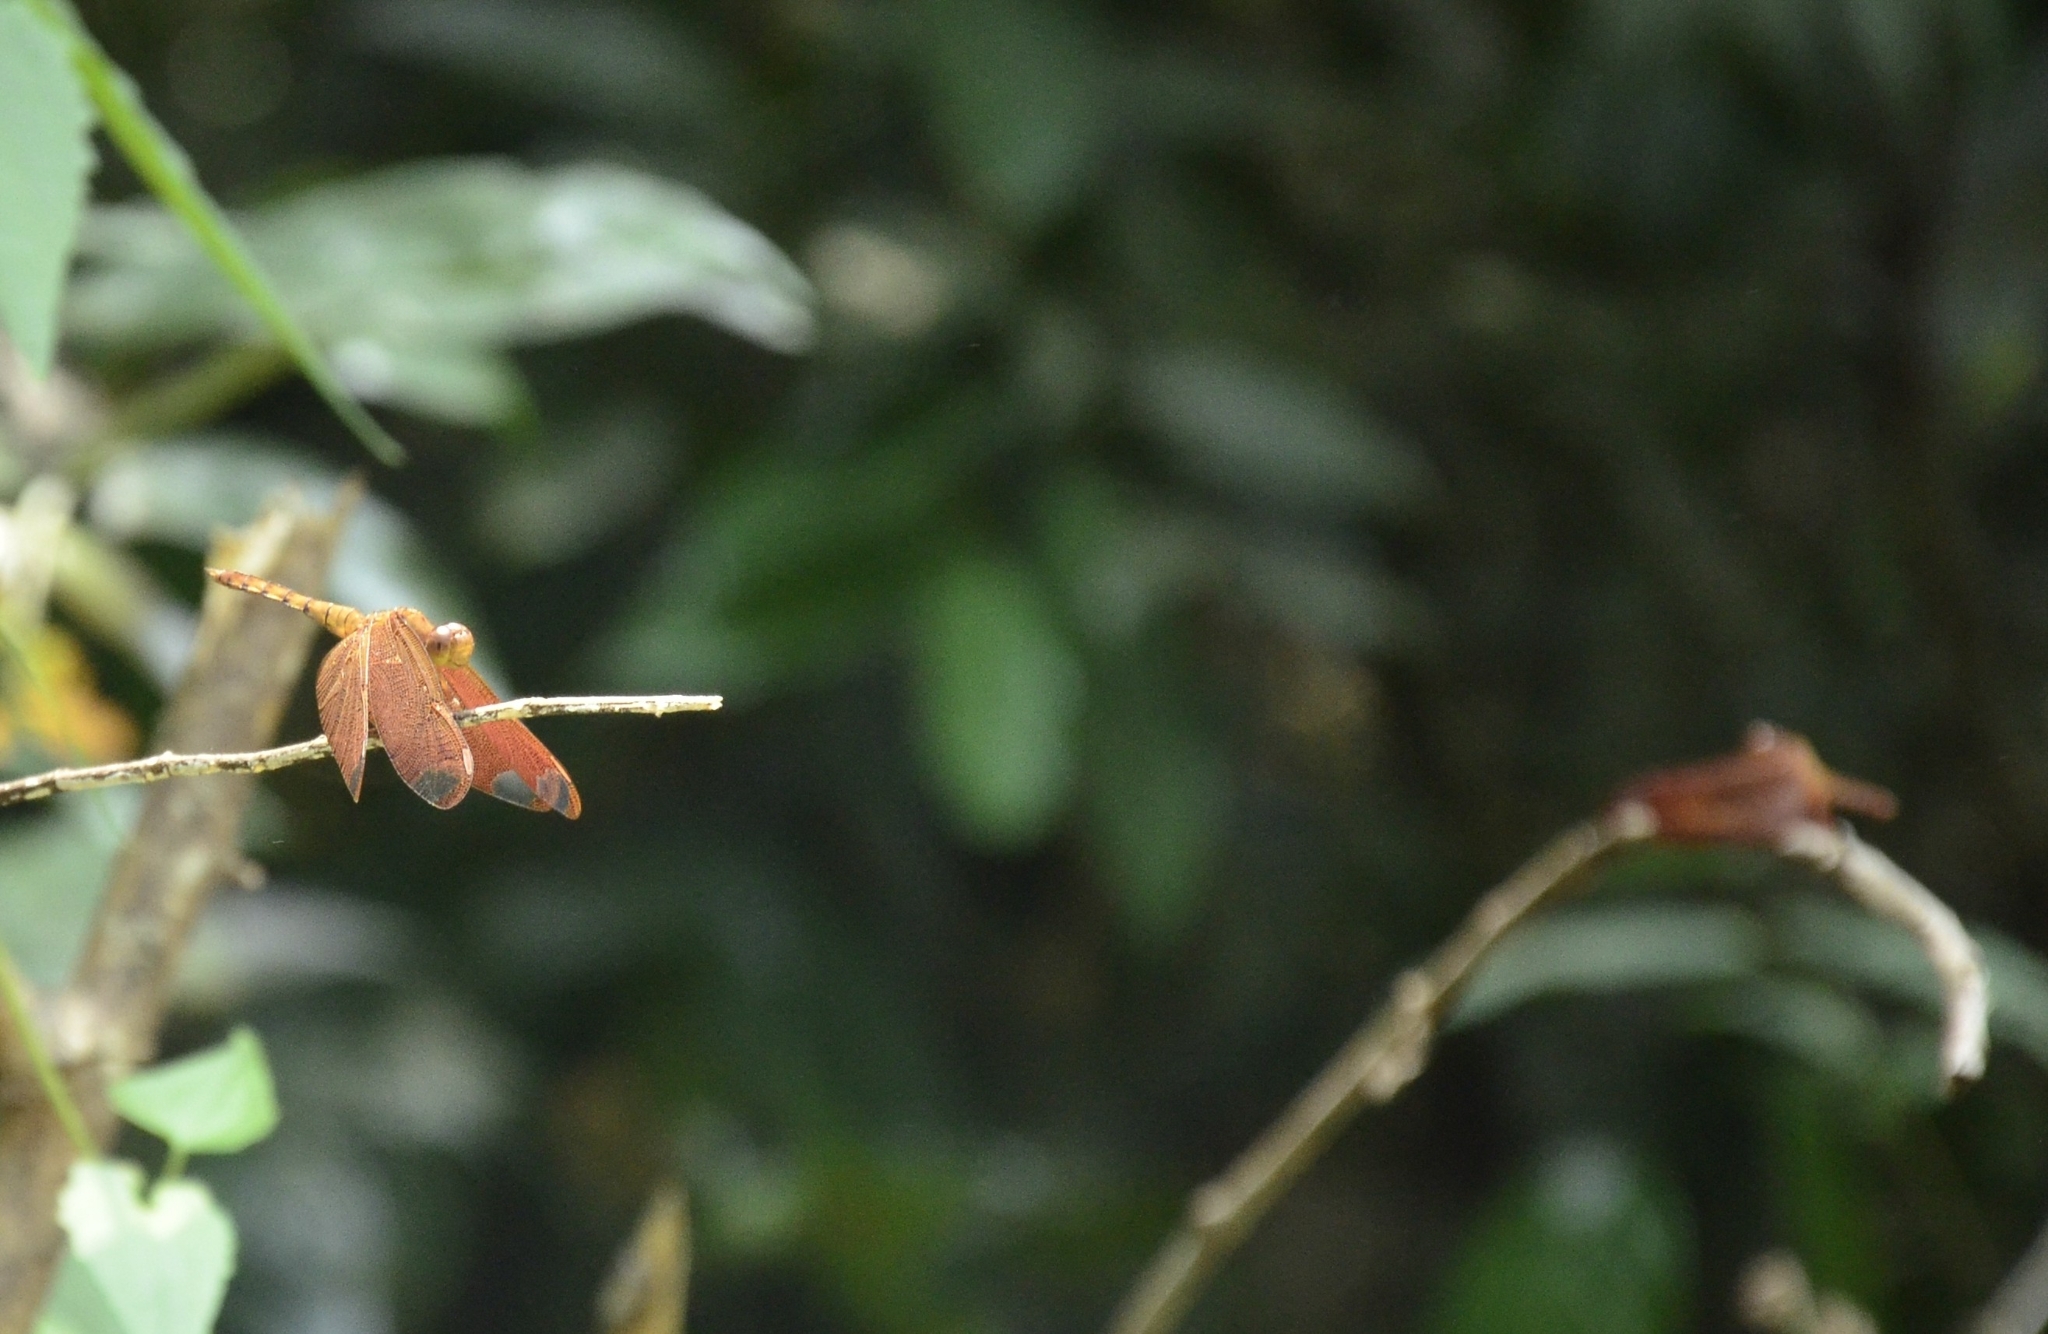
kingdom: Animalia
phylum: Arthropoda
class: Insecta
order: Odonata
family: Libellulidae
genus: Neurothemis
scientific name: Neurothemis fulvia
